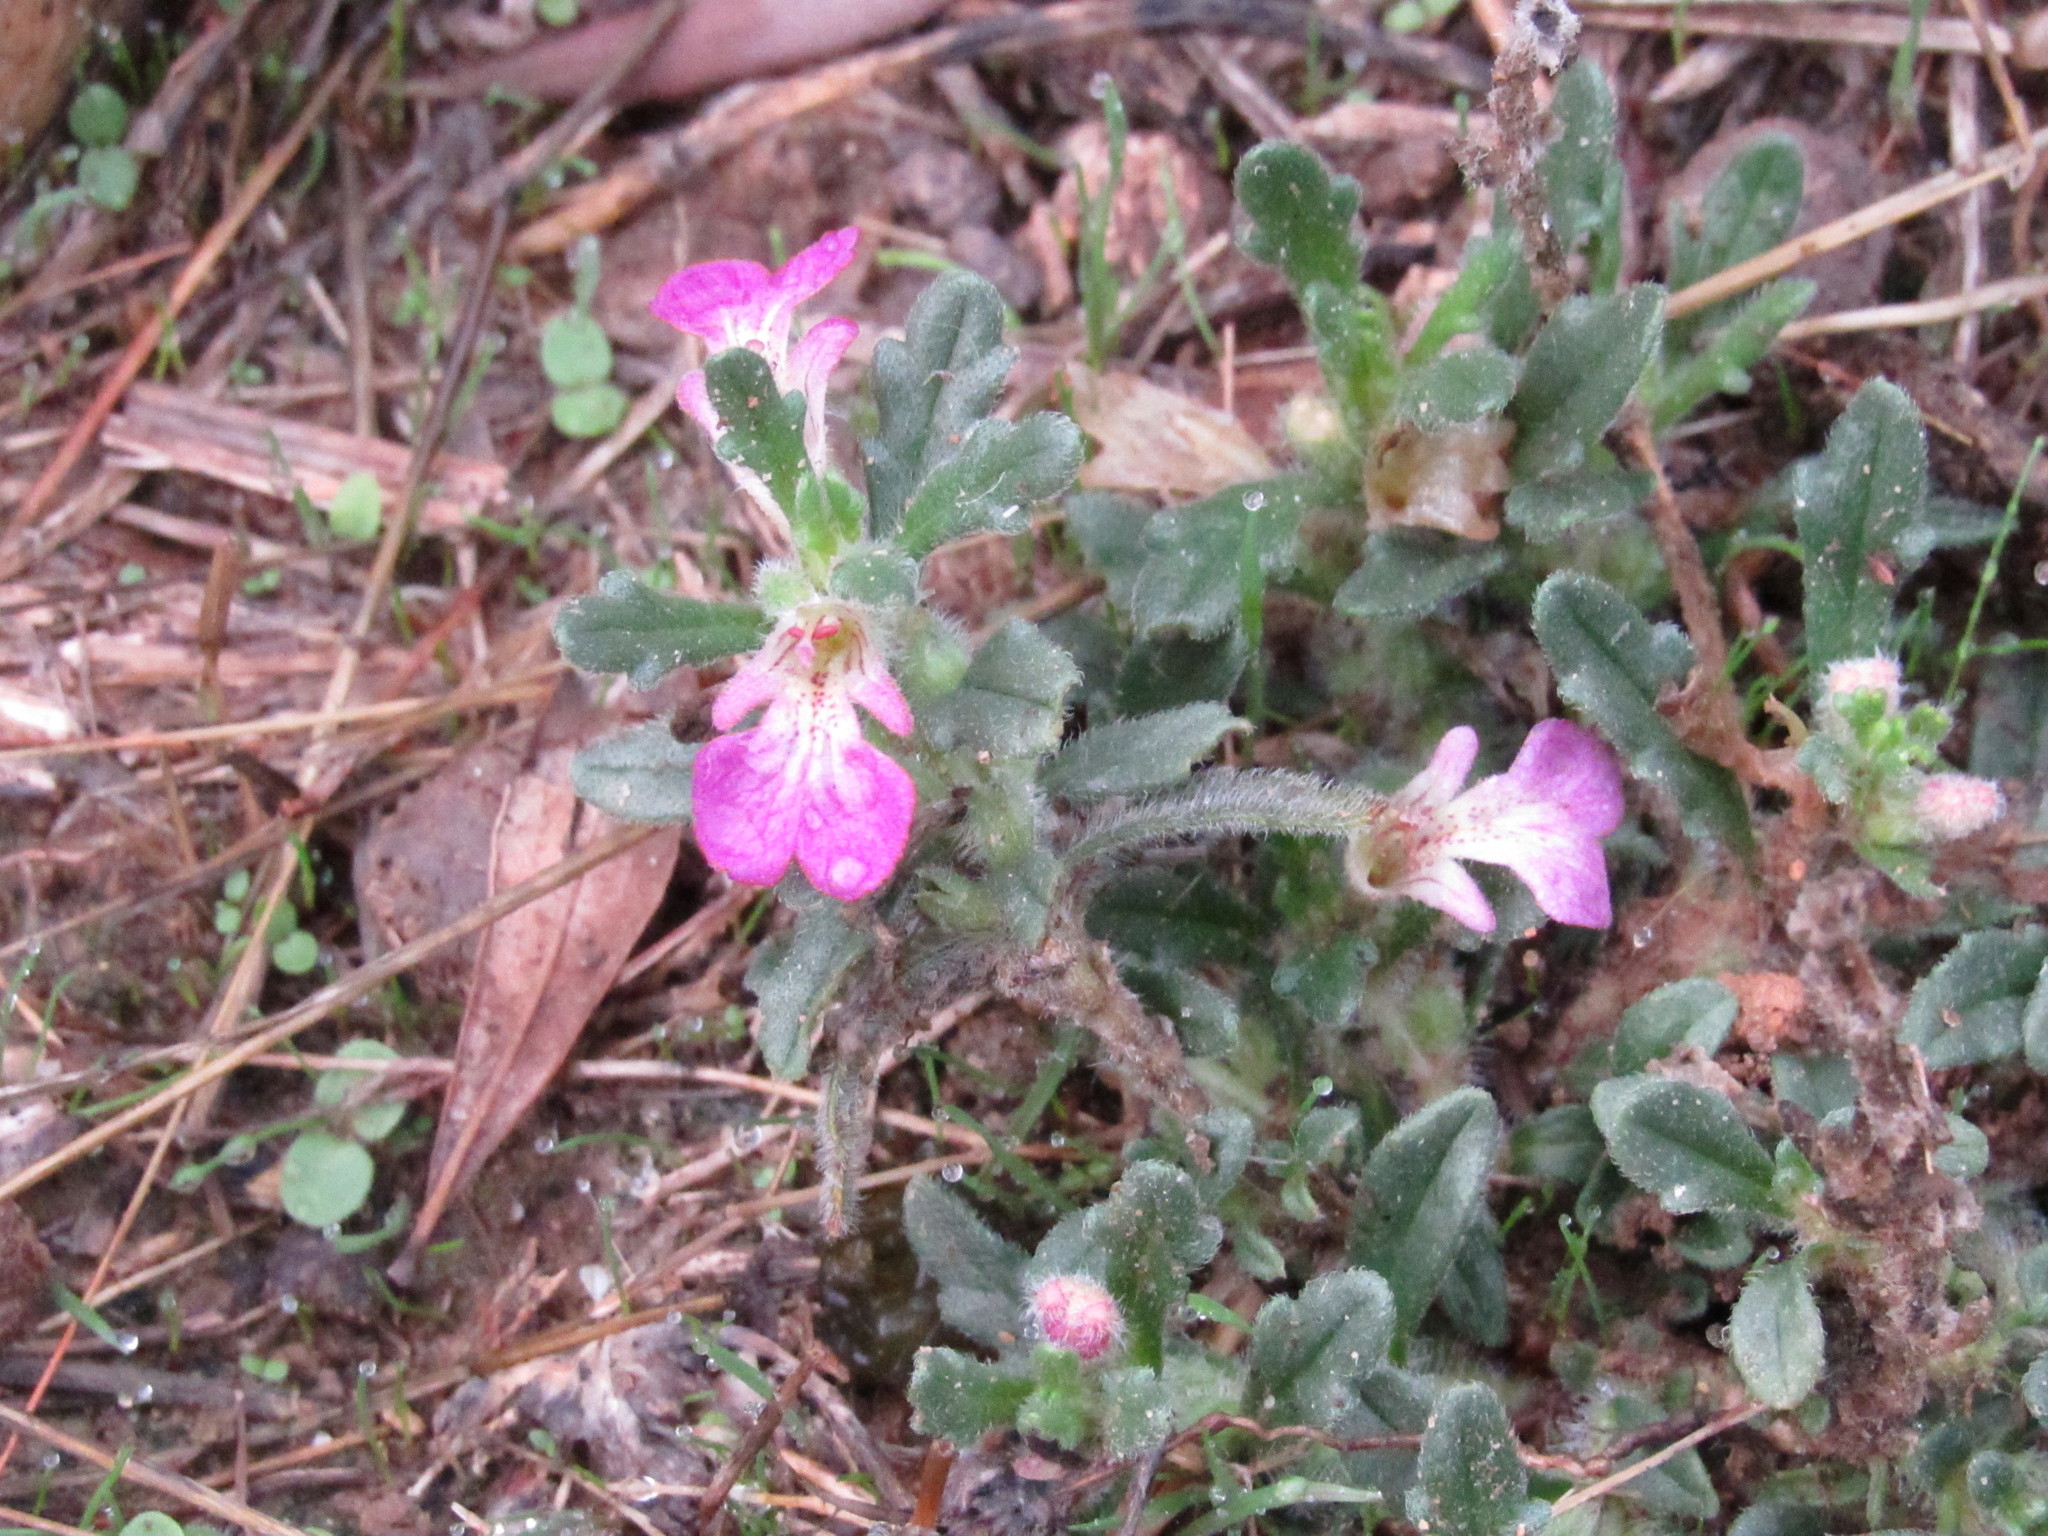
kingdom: Plantae
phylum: Tracheophyta
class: Magnoliopsida
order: Lamiales
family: Lamiaceae
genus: Ajuga
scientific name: Ajuga iva
